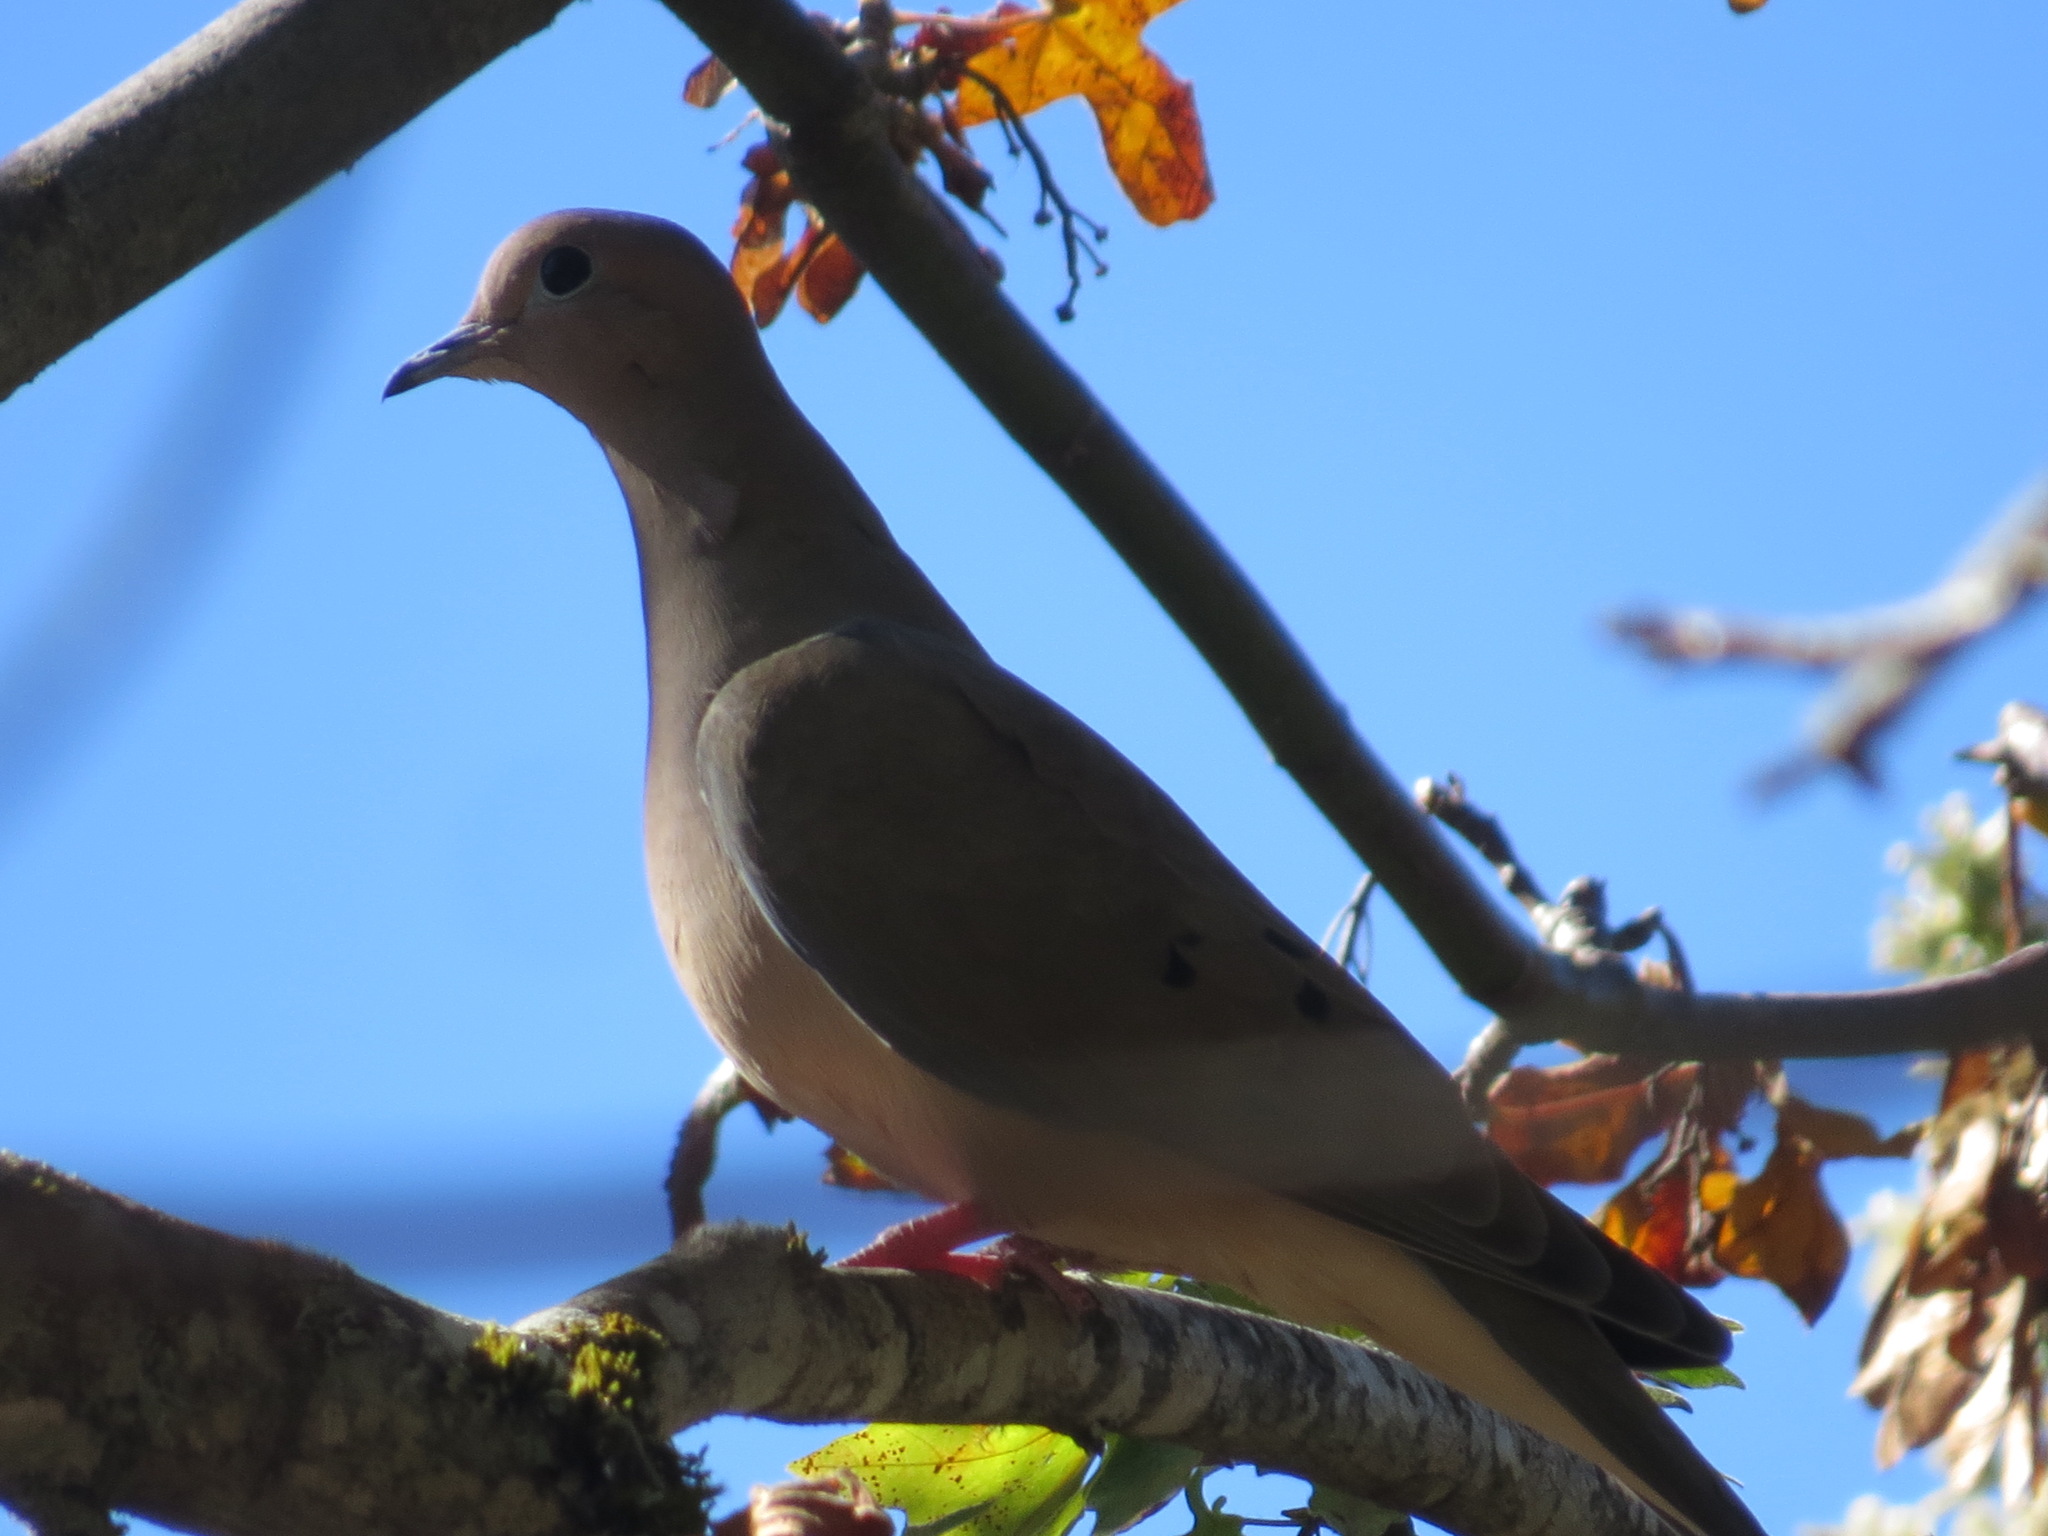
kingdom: Animalia
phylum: Chordata
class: Aves
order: Columbiformes
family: Columbidae
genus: Zenaida
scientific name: Zenaida macroura
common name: Mourning dove
